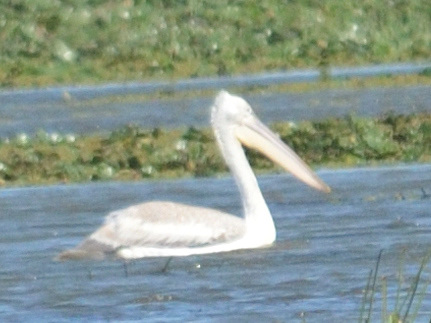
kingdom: Animalia
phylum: Chordata
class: Aves
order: Pelecaniformes
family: Pelecanidae
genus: Pelecanus
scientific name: Pelecanus crispus
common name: Dalmatian pelican
